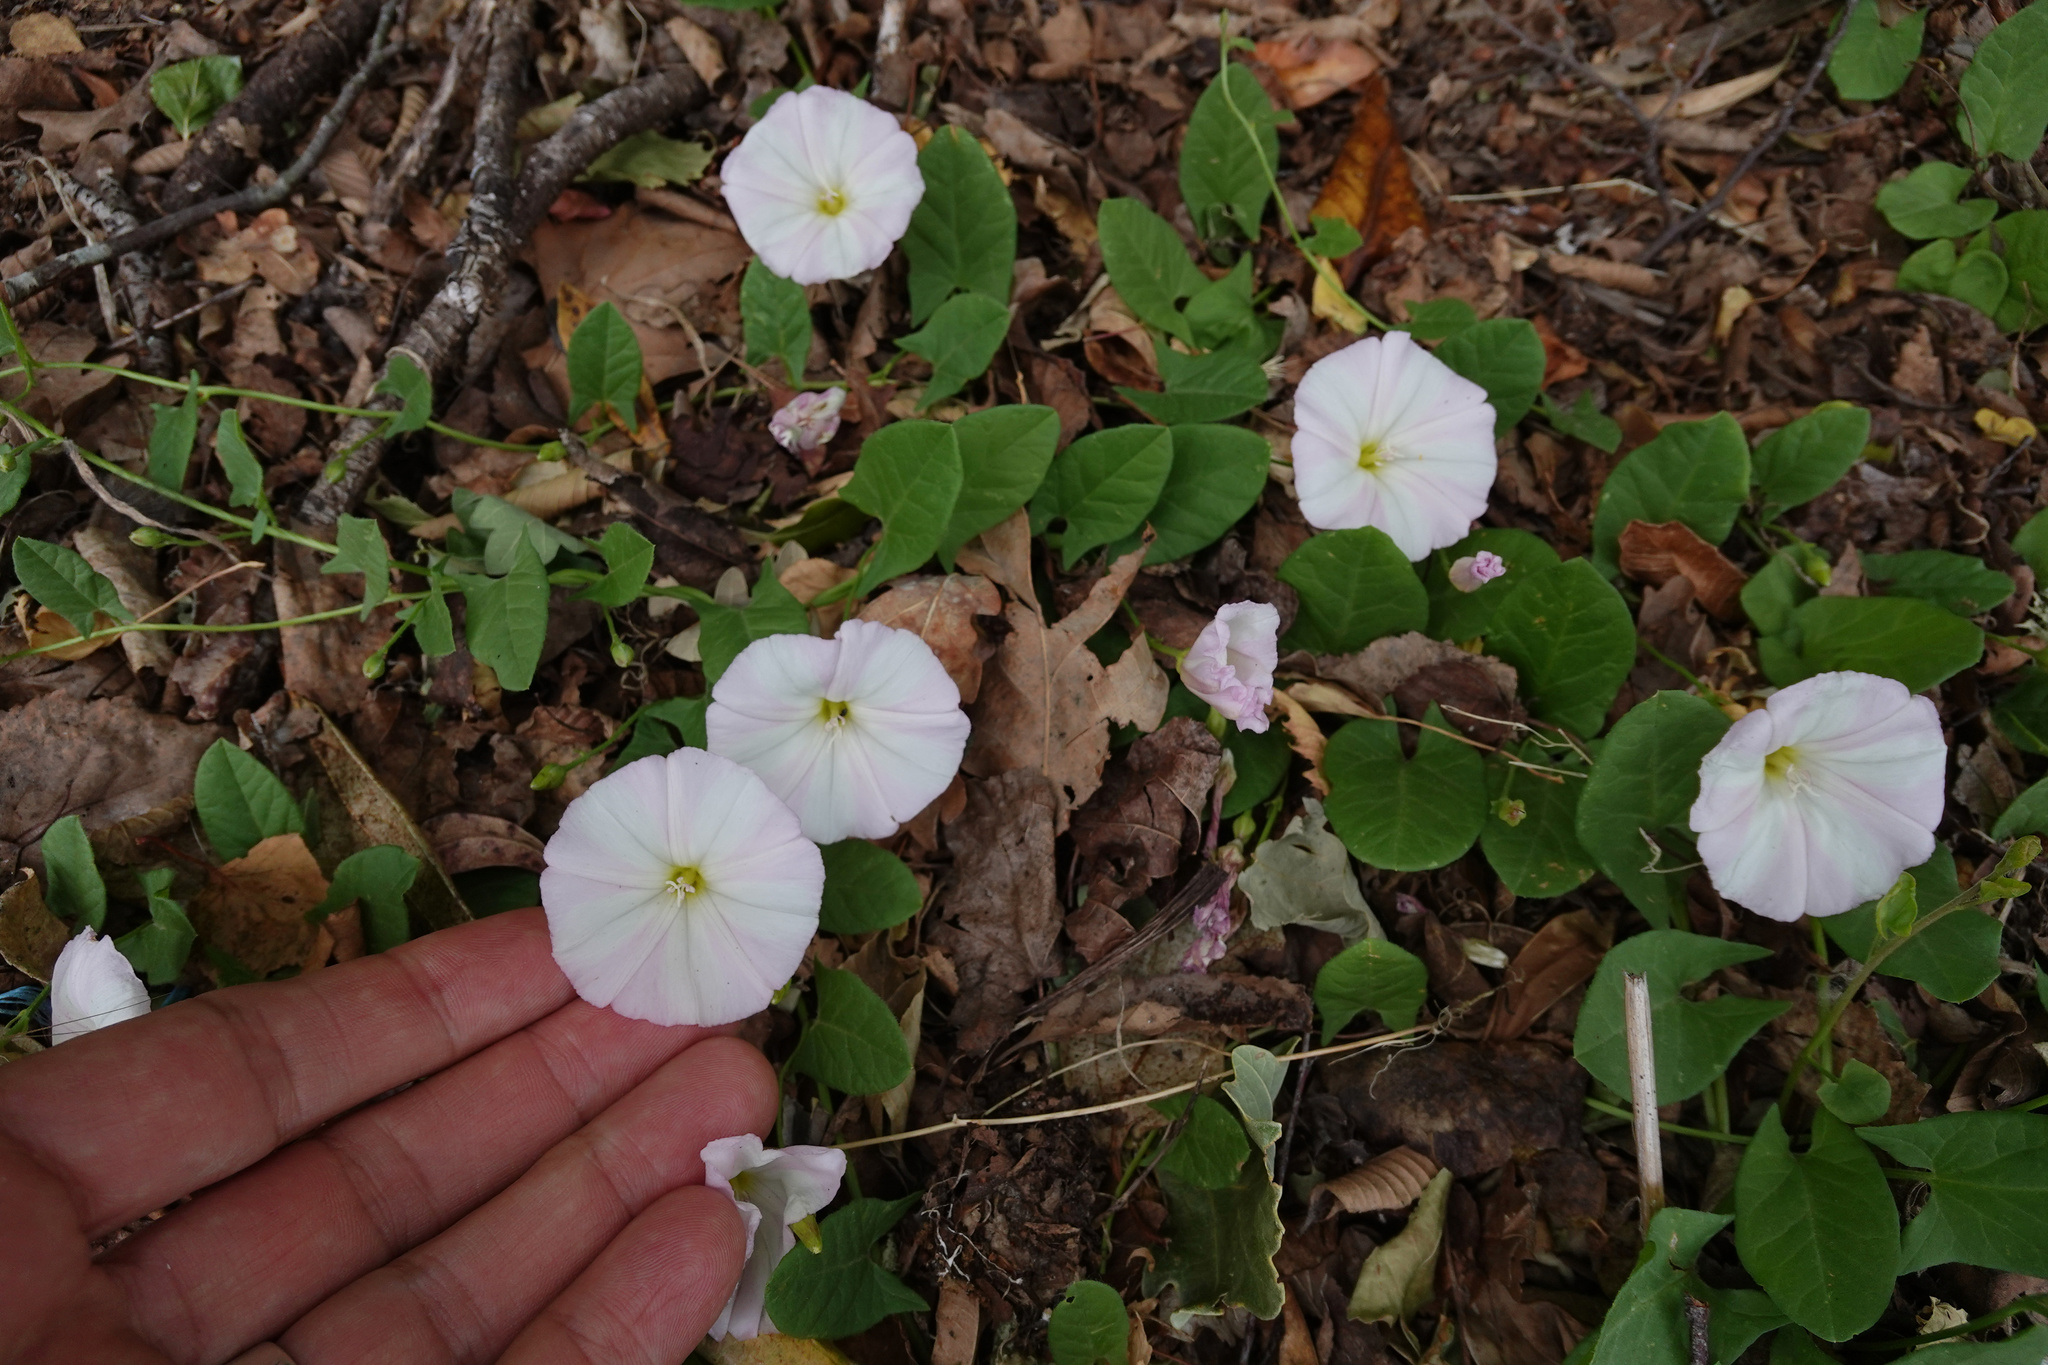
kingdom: Plantae
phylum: Tracheophyta
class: Magnoliopsida
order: Solanales
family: Convolvulaceae
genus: Convolvulus
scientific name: Convolvulus arvensis
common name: Field bindweed
